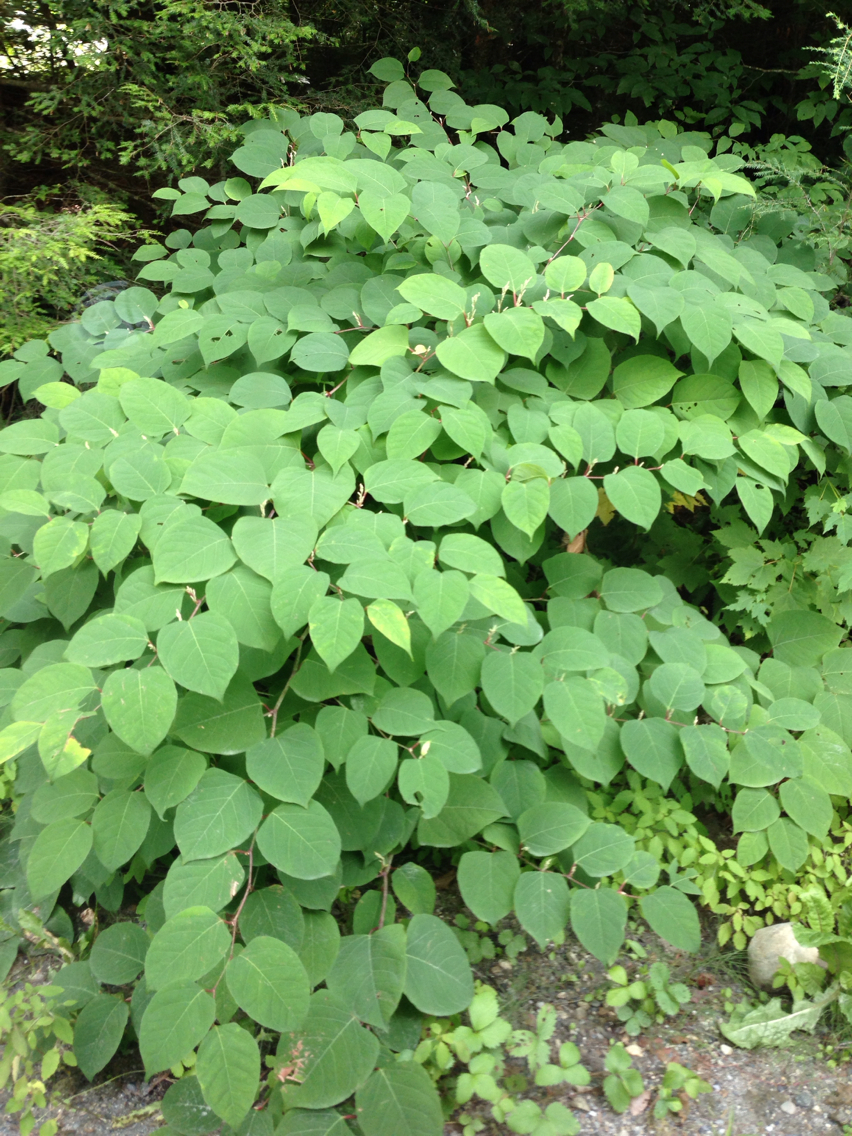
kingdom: Plantae
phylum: Tracheophyta
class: Magnoliopsida
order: Caryophyllales
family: Polygonaceae
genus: Reynoutria
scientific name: Reynoutria japonica
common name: Japanese knotweed
